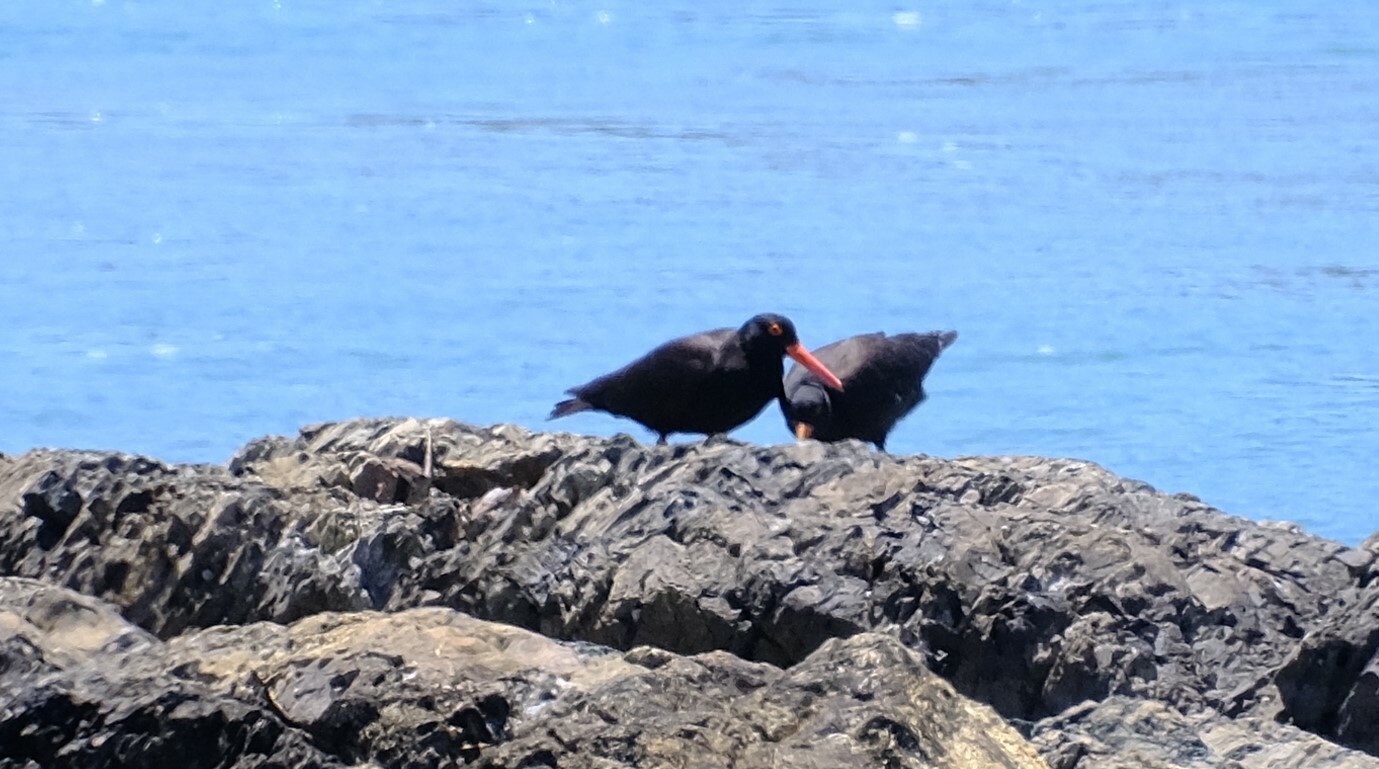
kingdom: Animalia
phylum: Chordata
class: Aves
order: Charadriiformes
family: Haematopodidae
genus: Haematopus
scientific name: Haematopus fuliginosus
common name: Sooty oystercatcher
